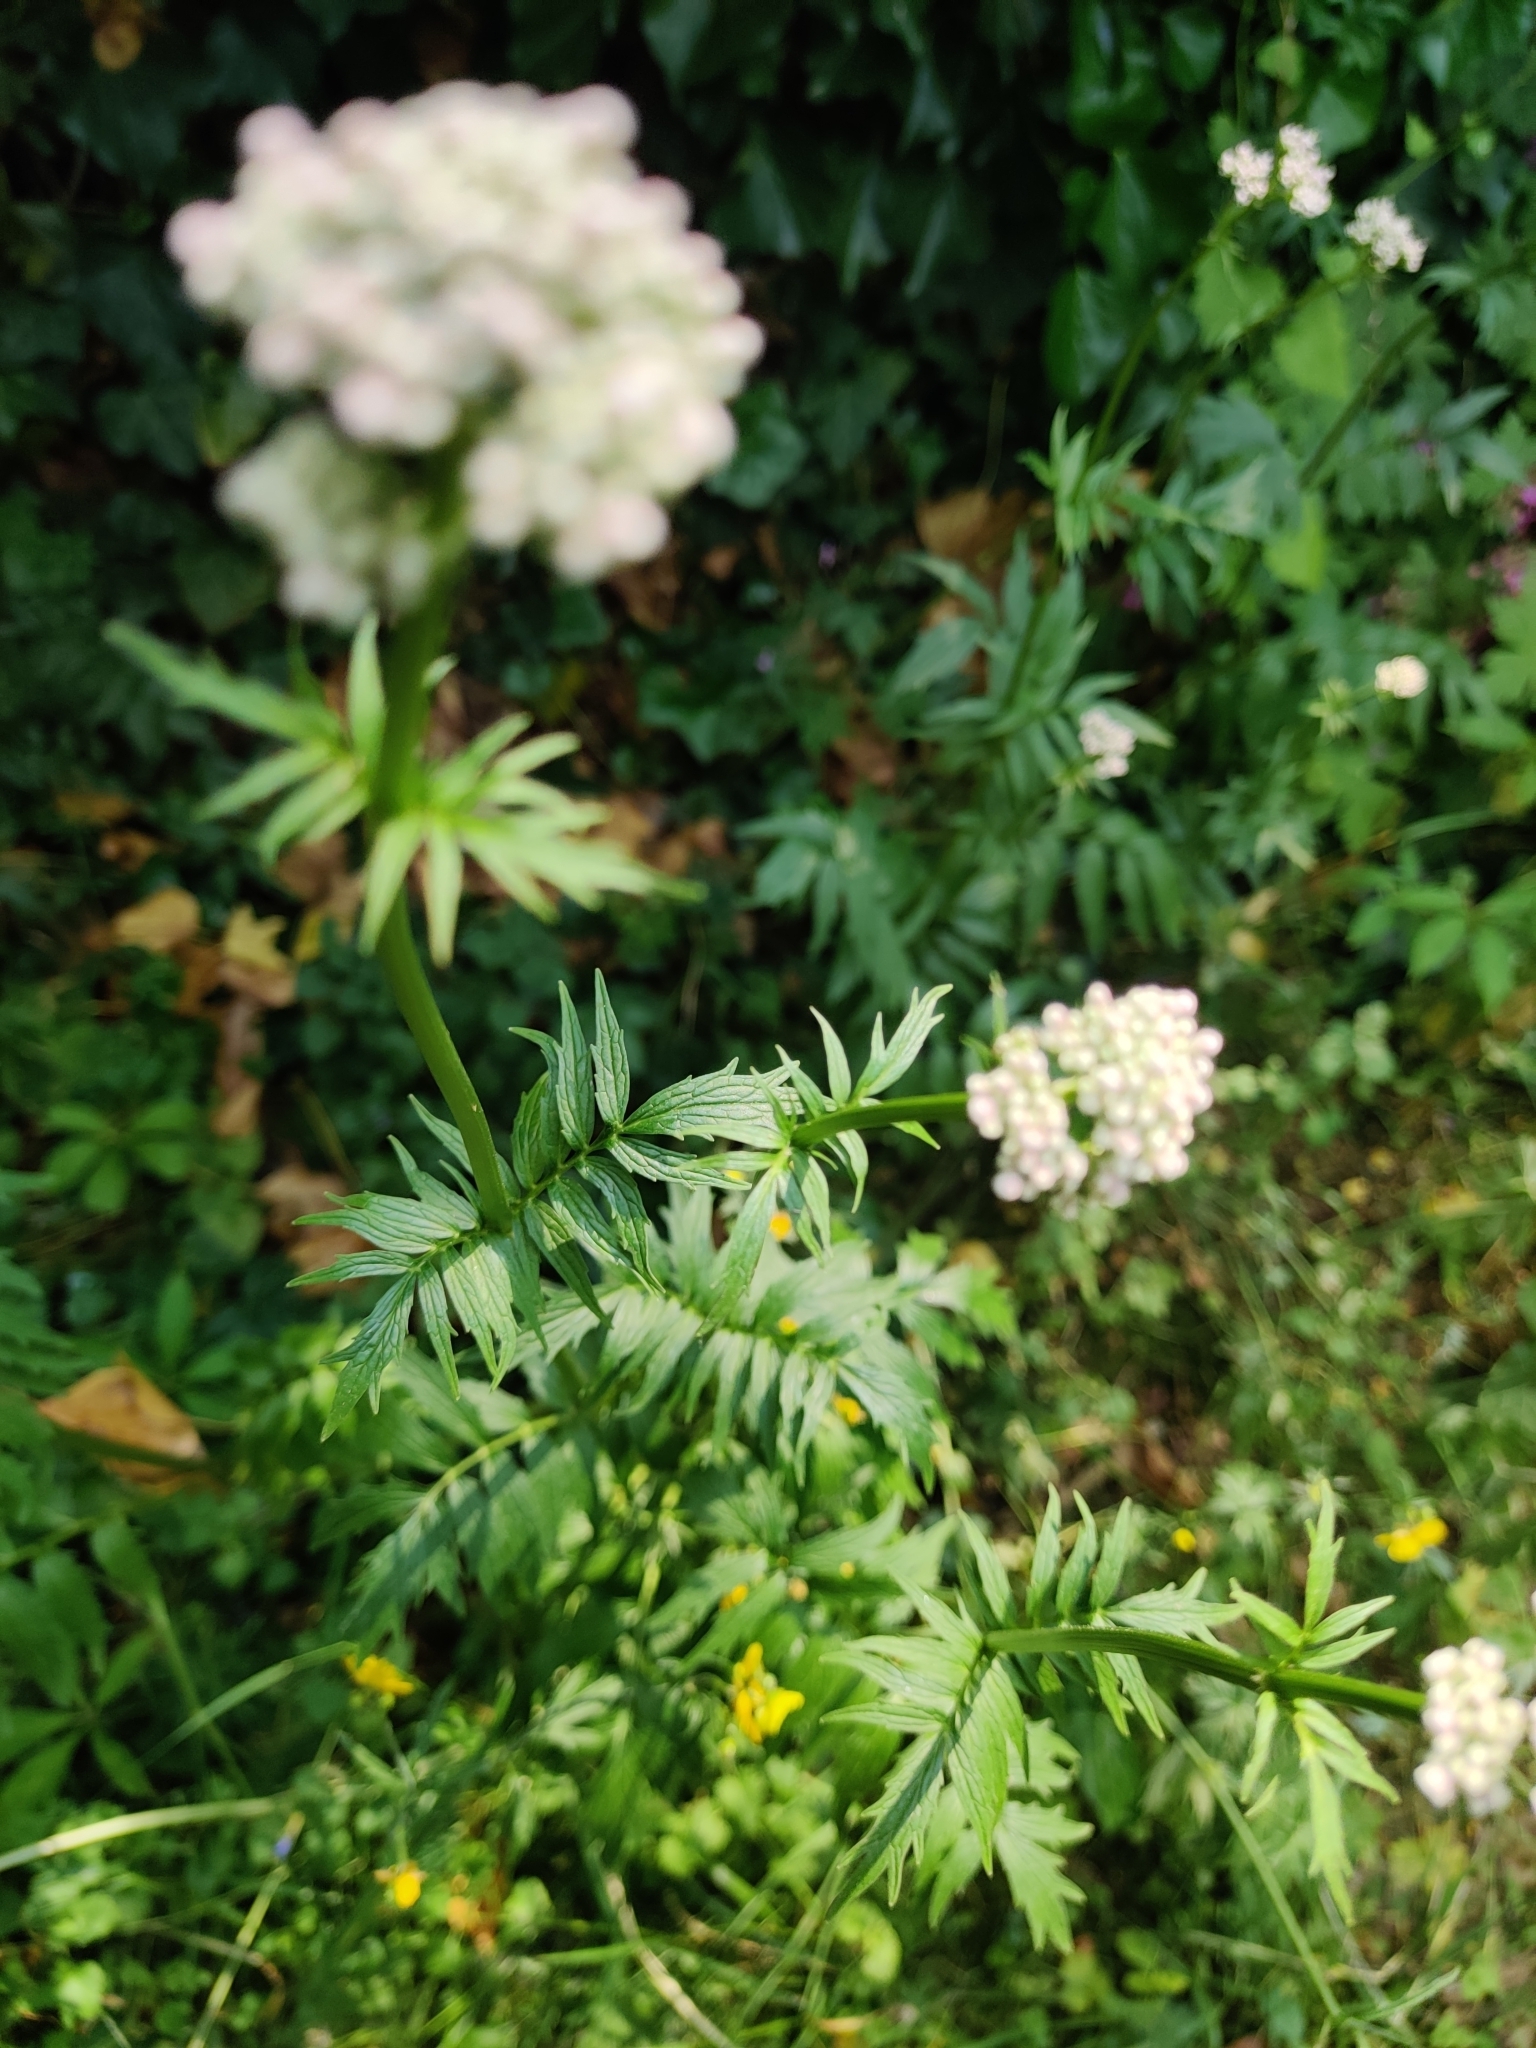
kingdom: Plantae
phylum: Tracheophyta
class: Magnoliopsida
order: Dipsacales
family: Caprifoliaceae
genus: Valeriana
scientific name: Valeriana officinalis
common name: Common valerian
